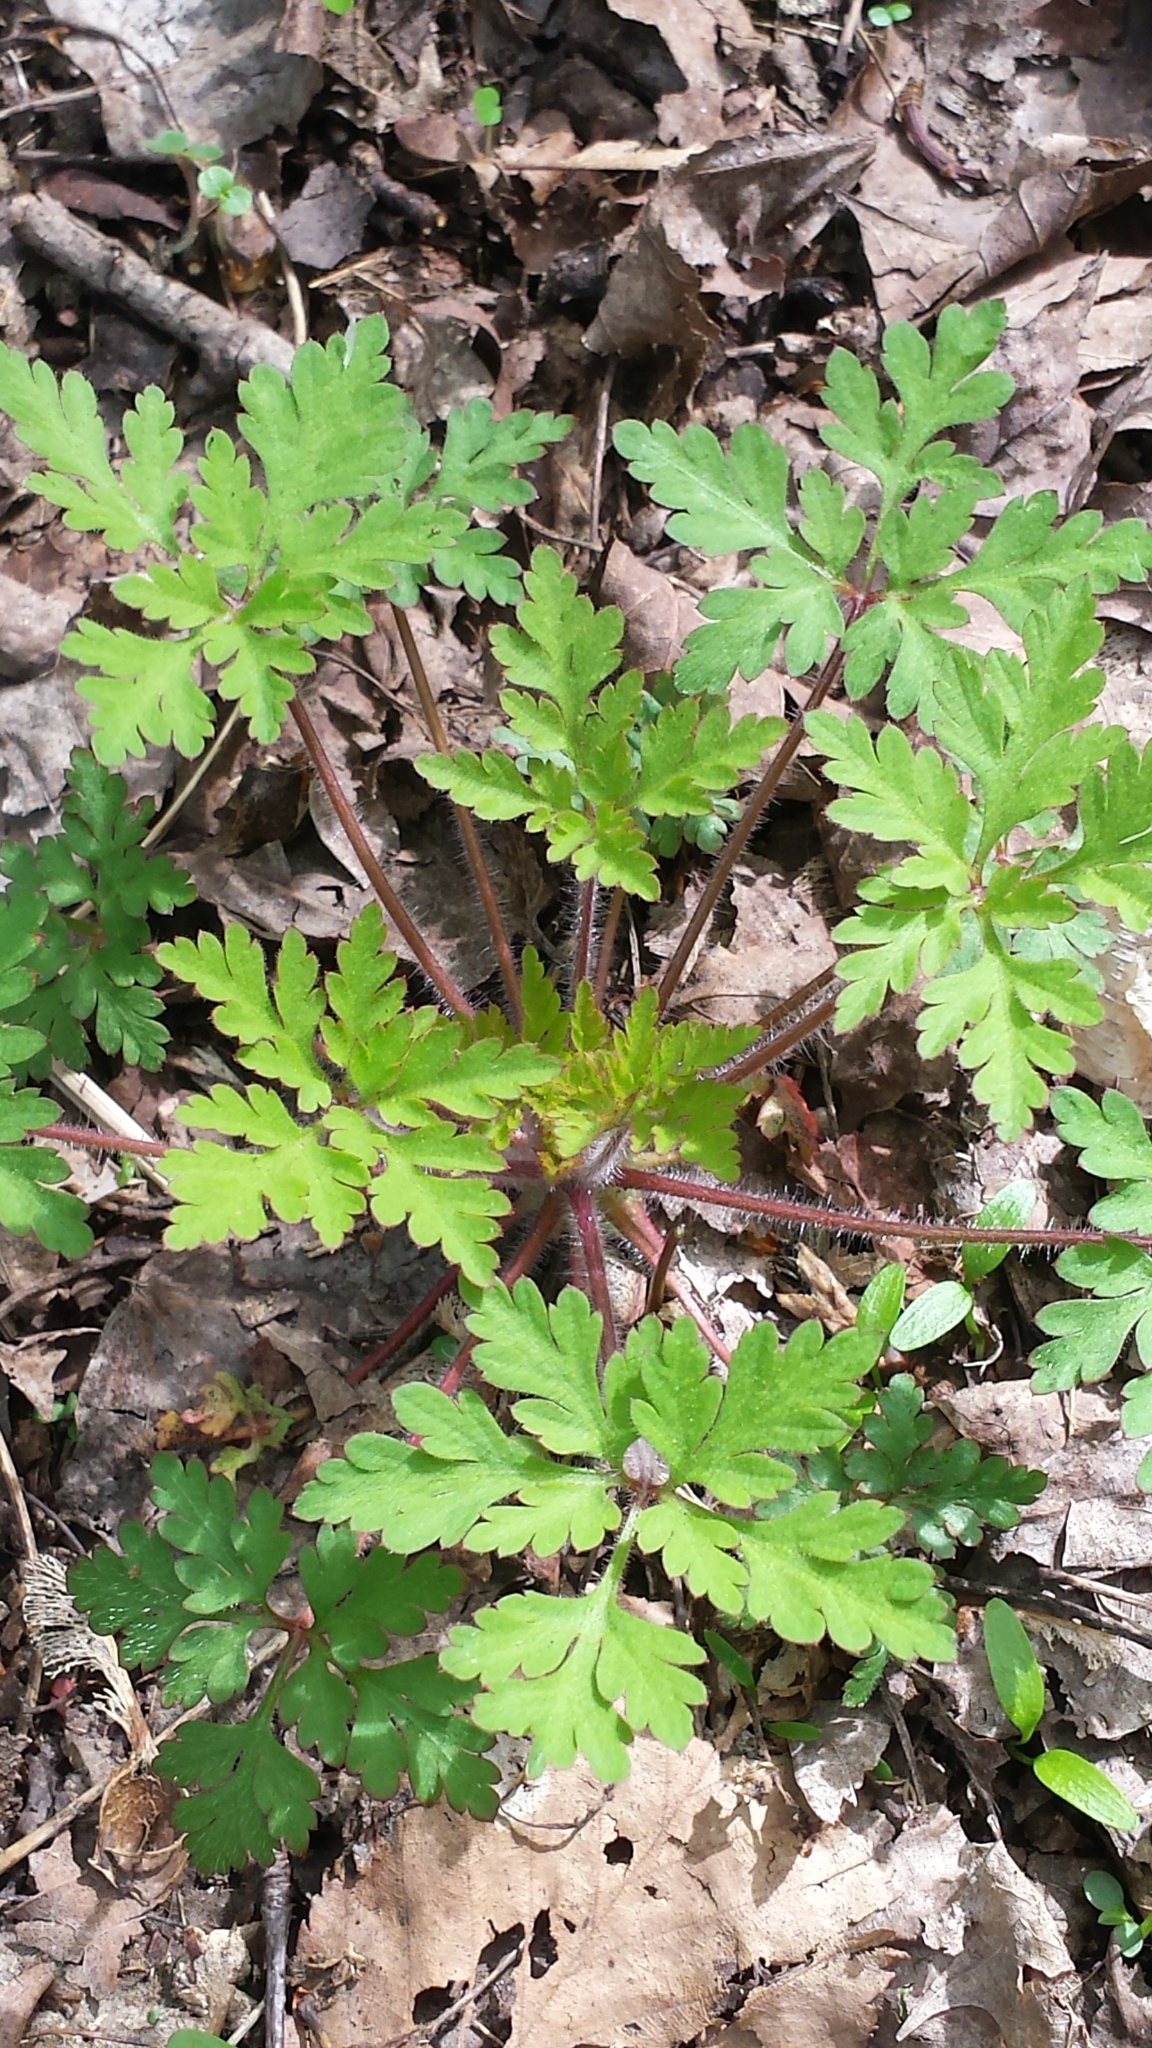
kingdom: Plantae
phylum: Tracheophyta
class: Magnoliopsida
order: Geraniales
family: Geraniaceae
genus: Geranium
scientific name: Geranium robertianum
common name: Herb-robert
